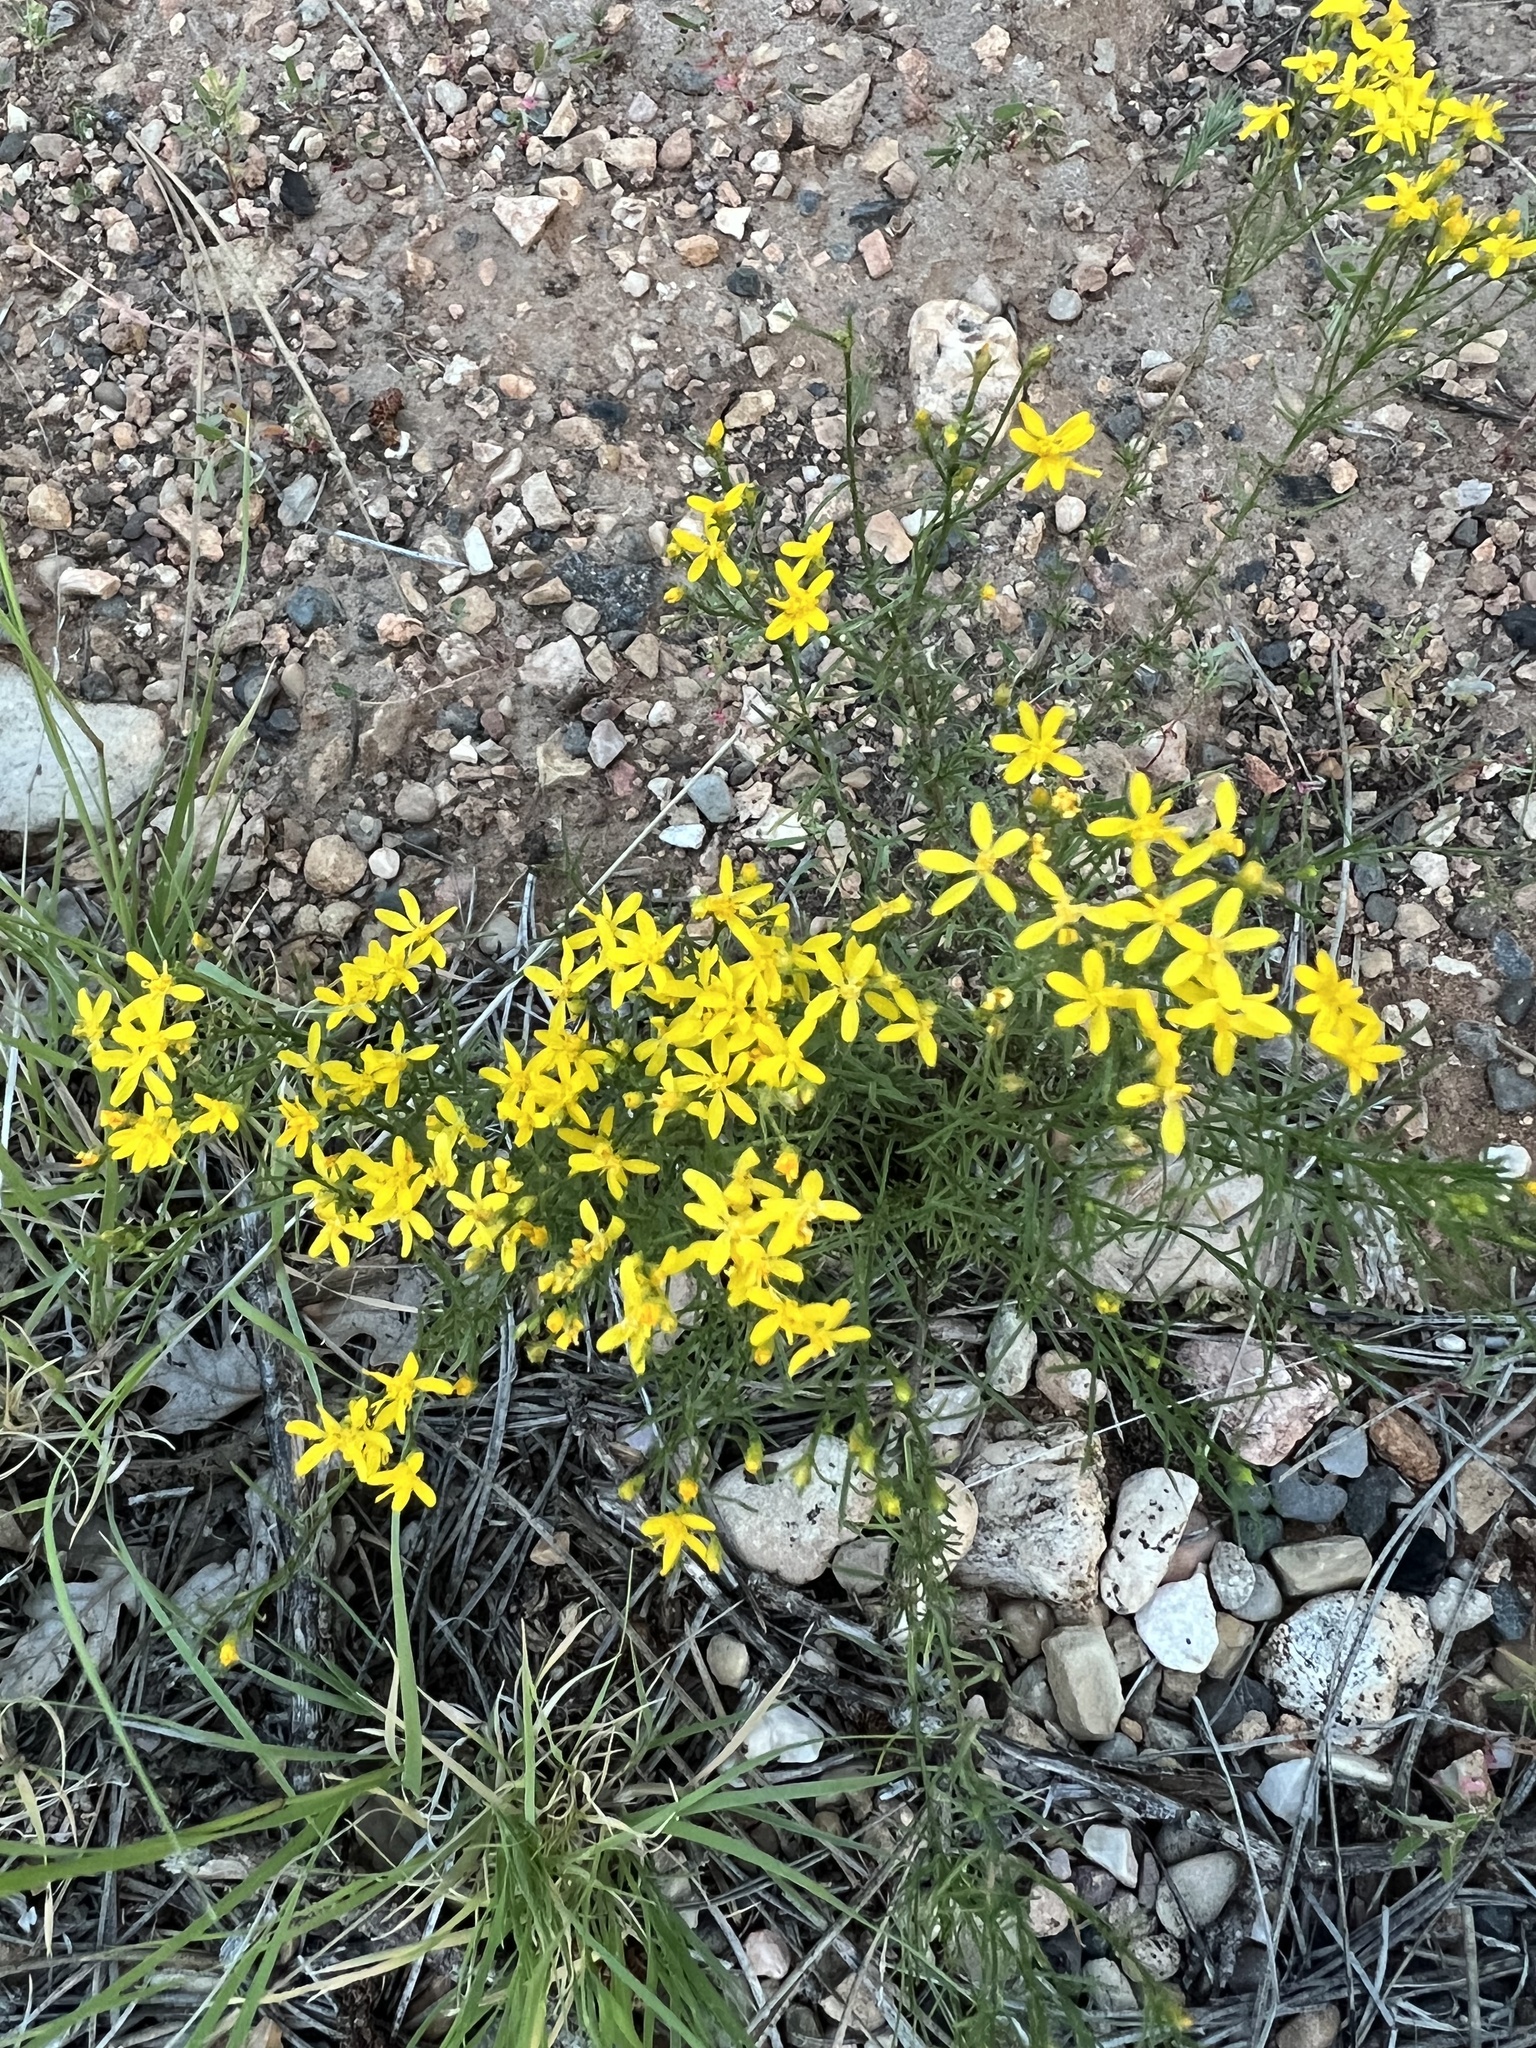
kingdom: Plantae
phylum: Tracheophyta
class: Magnoliopsida
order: Asterales
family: Asteraceae
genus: Senecio
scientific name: Senecio spartioides
